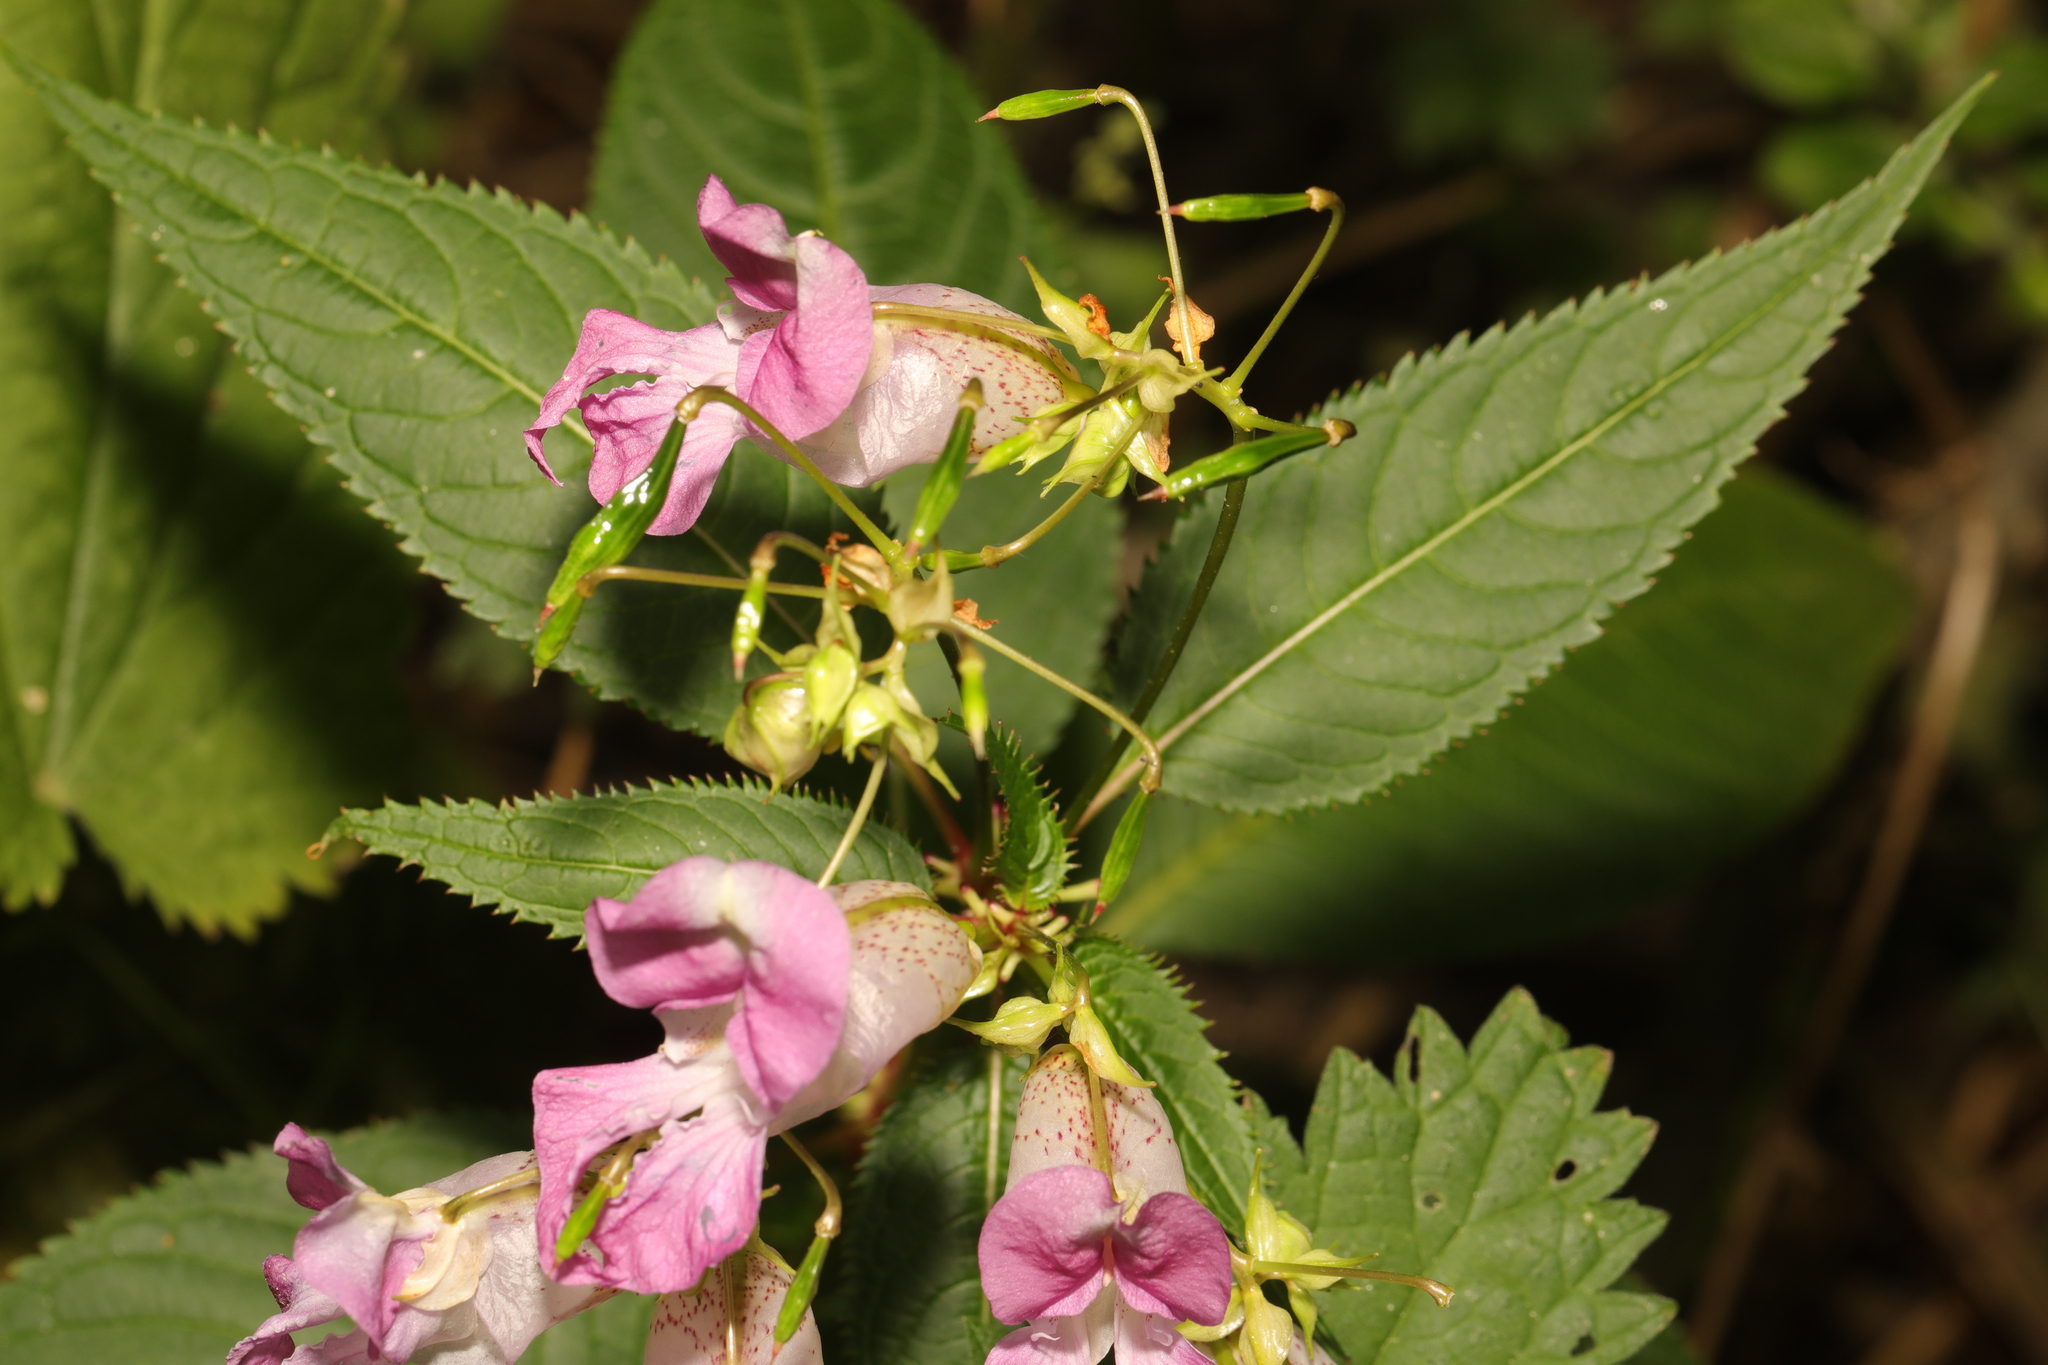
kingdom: Plantae
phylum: Tracheophyta
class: Magnoliopsida
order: Ericales
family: Balsaminaceae
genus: Impatiens
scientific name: Impatiens glandulifera
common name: Himalayan balsam
